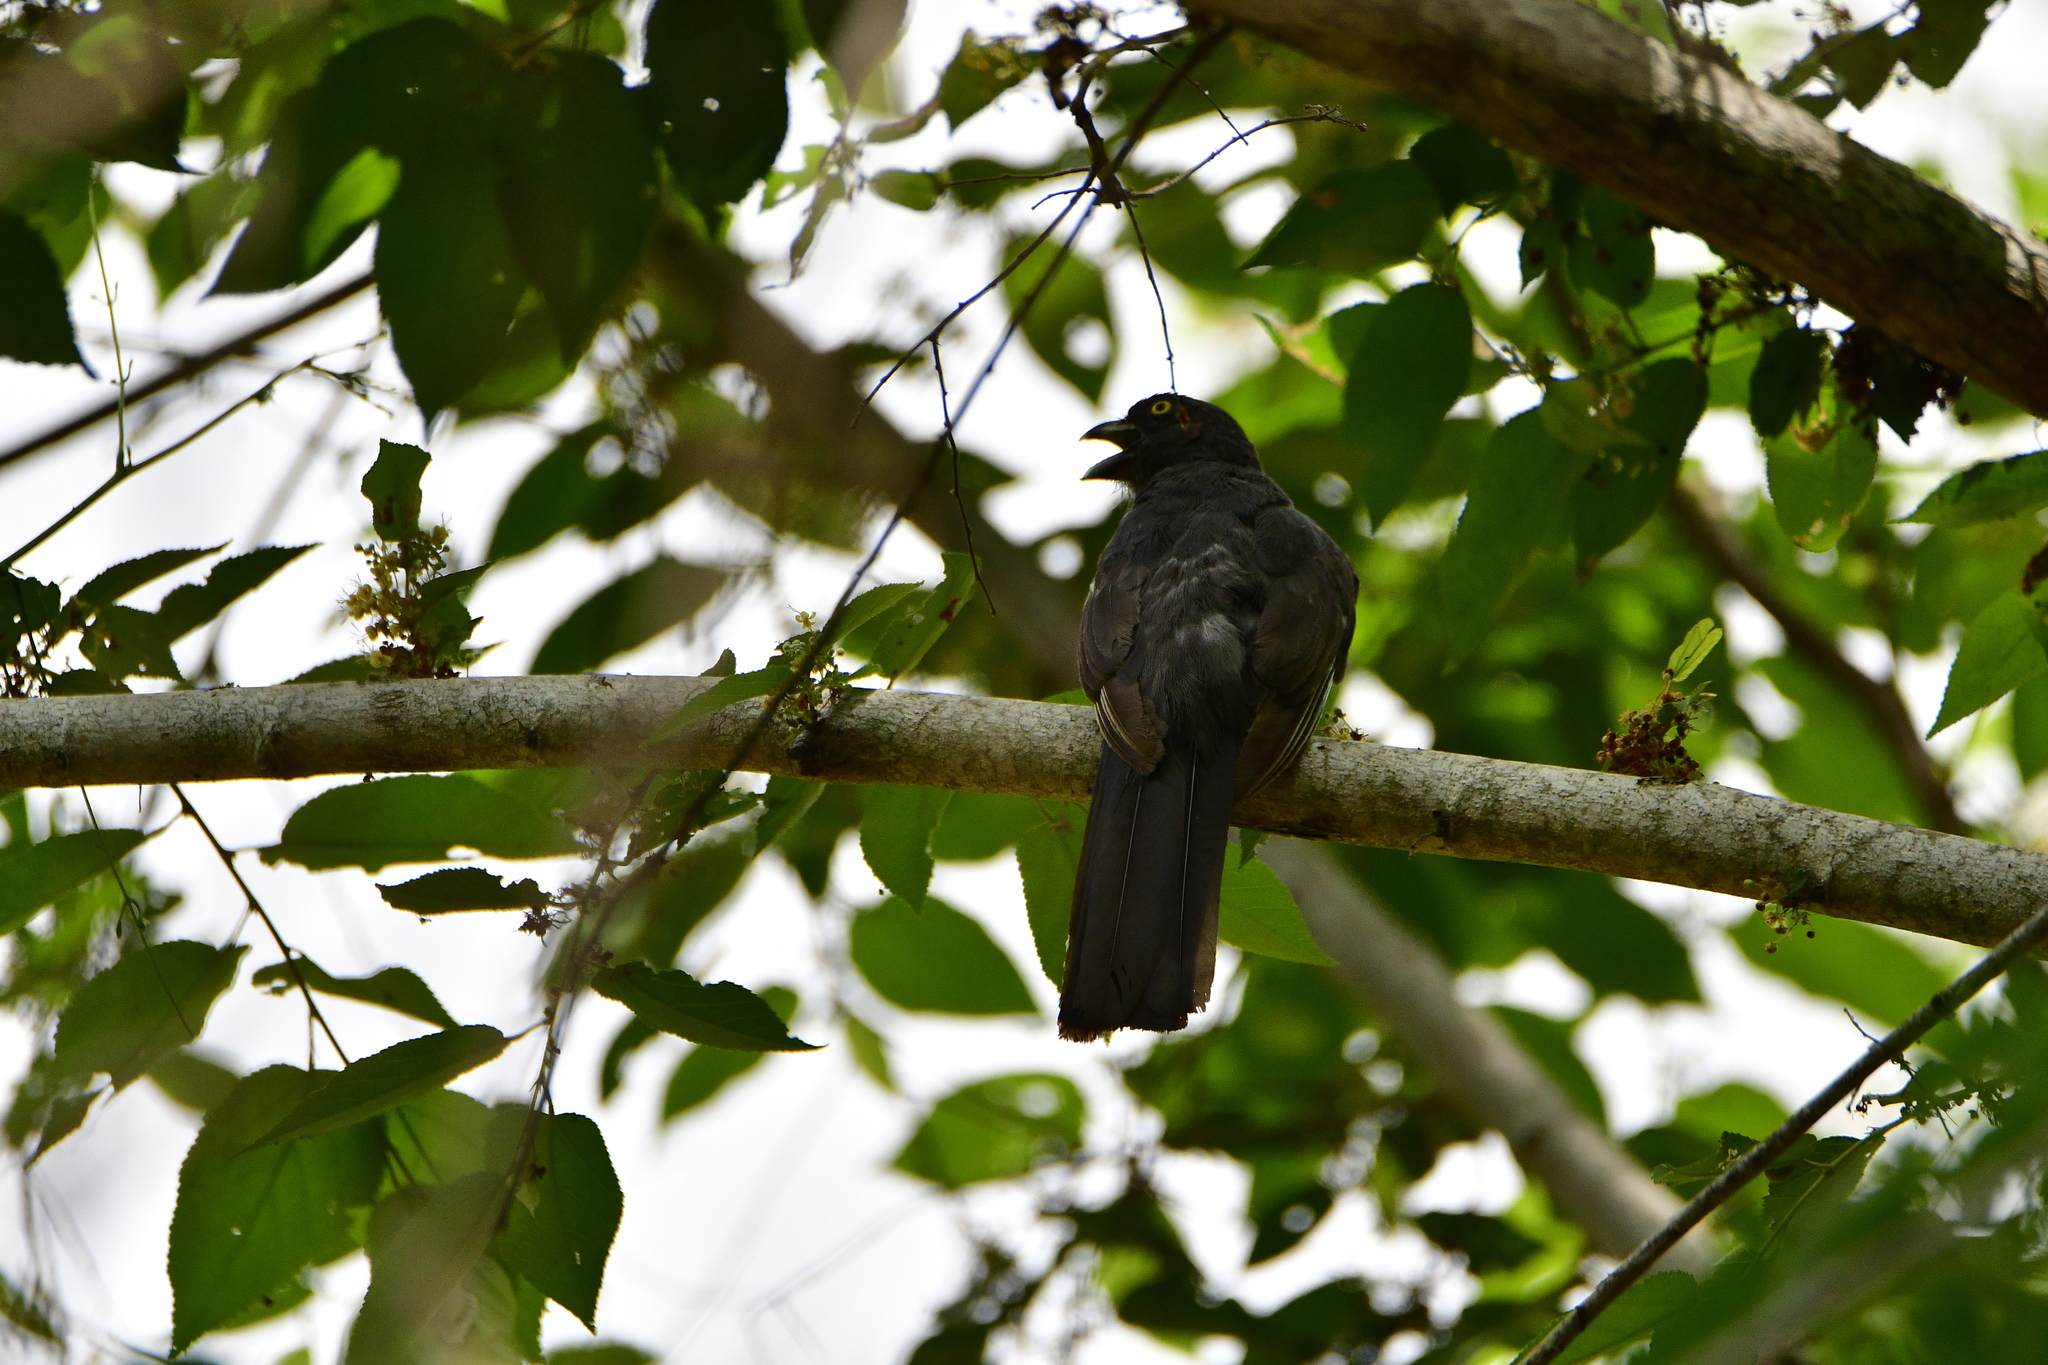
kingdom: Animalia
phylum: Chordata
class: Aves
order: Trogoniformes
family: Trogonidae
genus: Trogon
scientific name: Trogon citreolus
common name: Citreoline trogon
